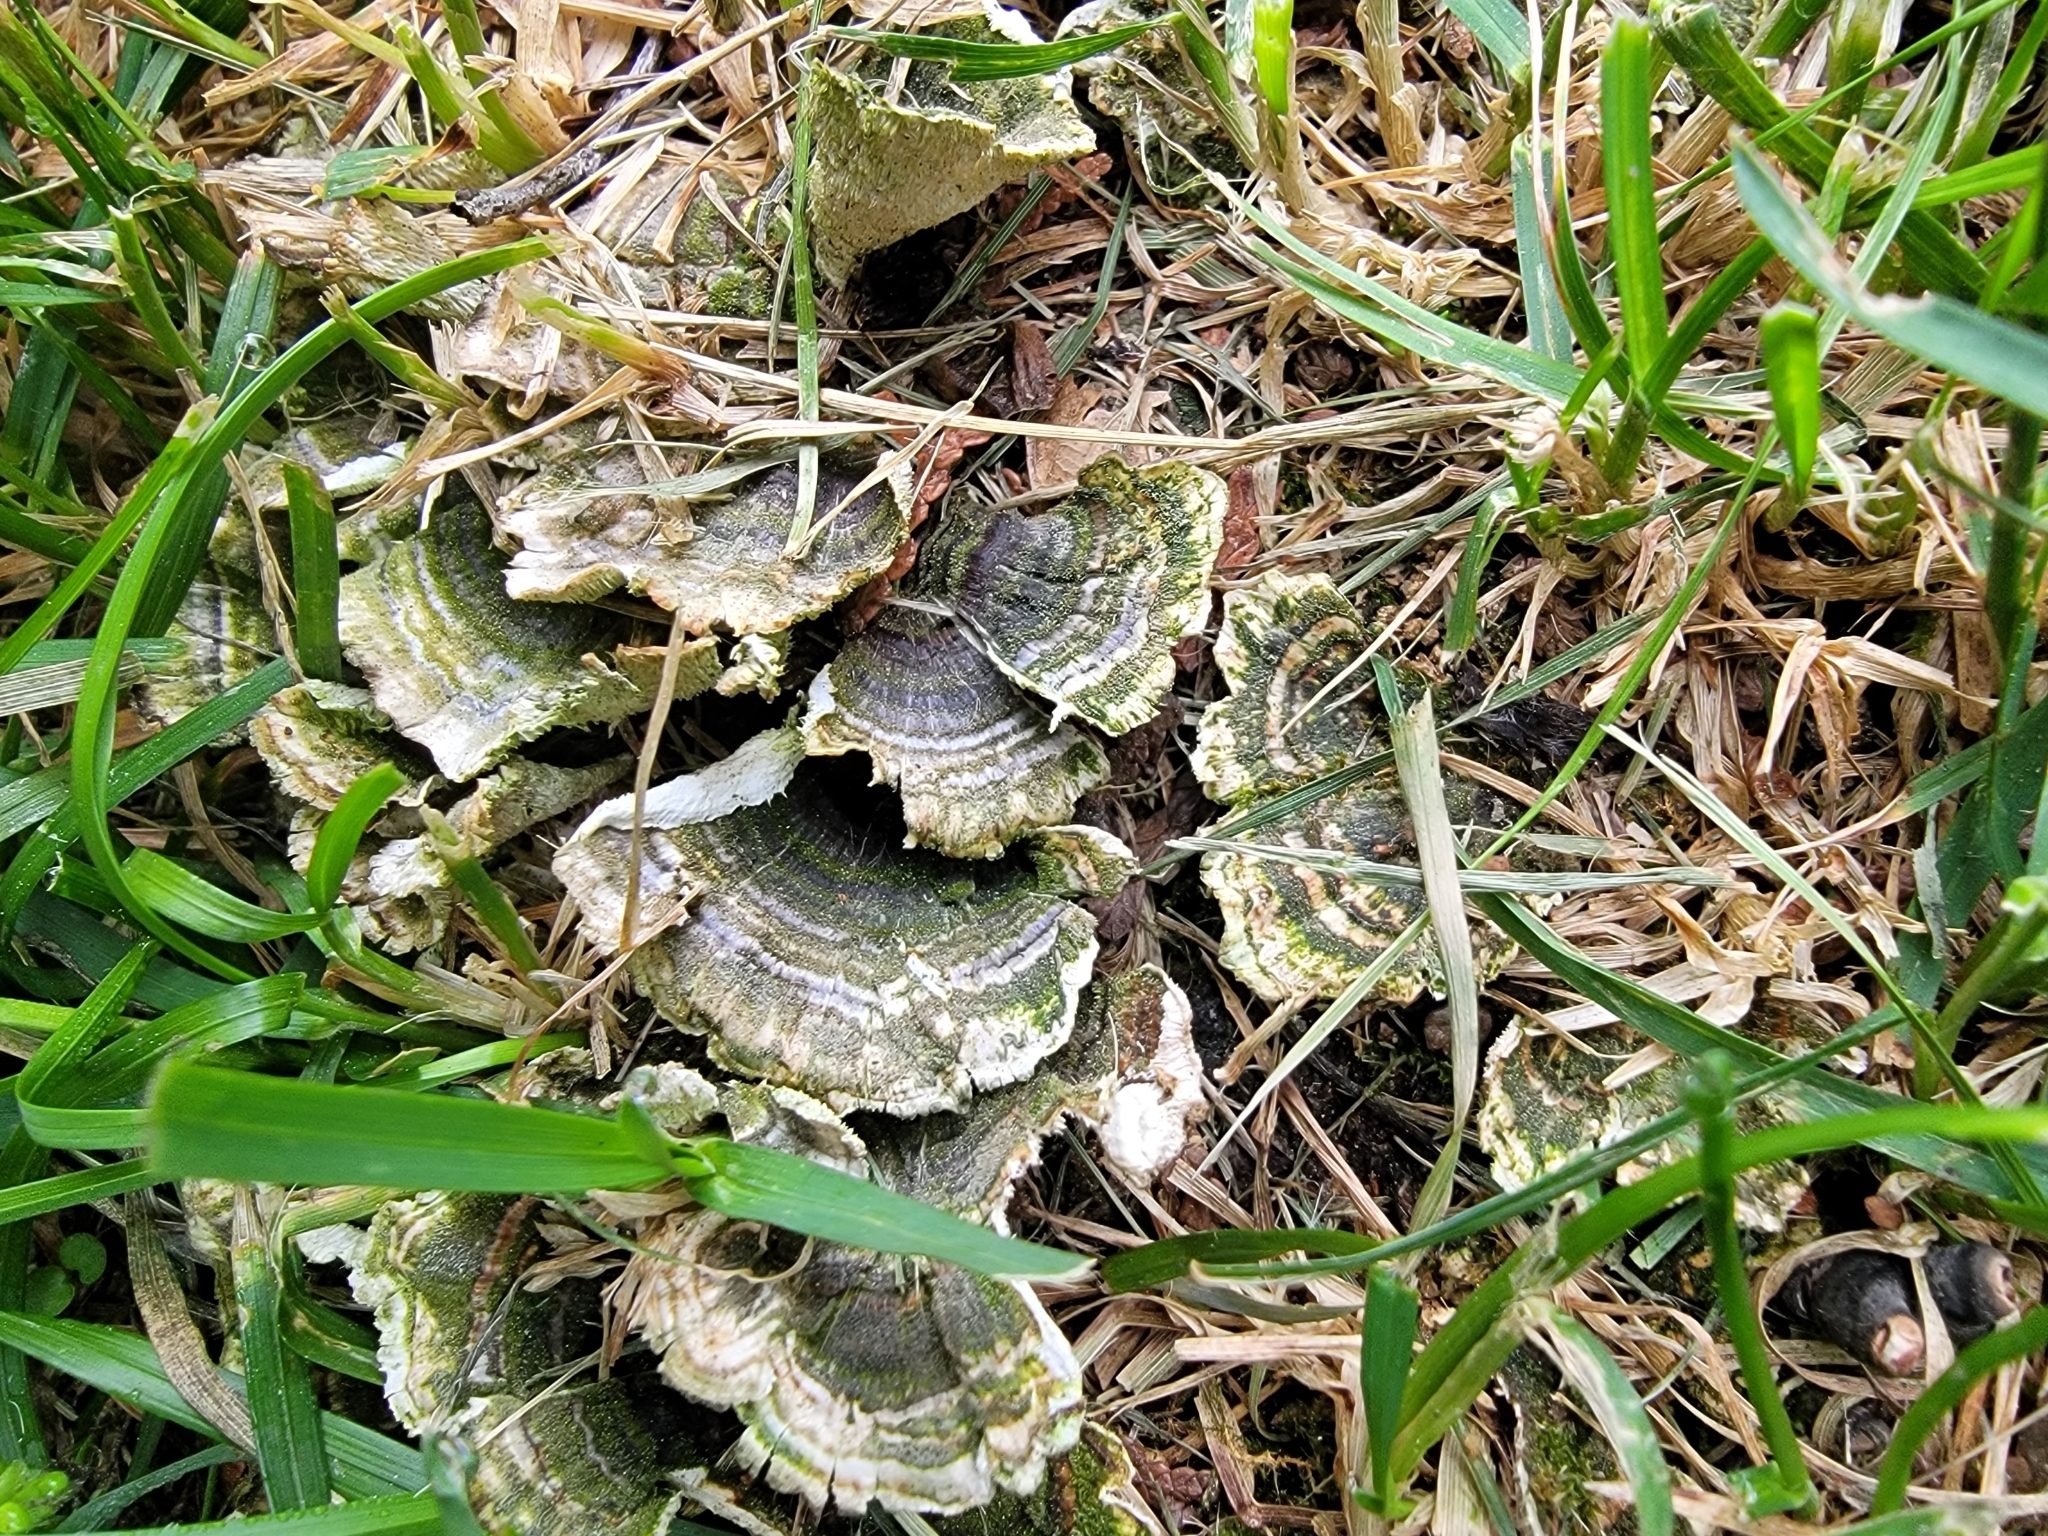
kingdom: Fungi
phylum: Basidiomycota
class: Agaricomycetes
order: Polyporales
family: Polyporaceae
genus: Trametes
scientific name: Trametes versicolor
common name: Turkeytail
